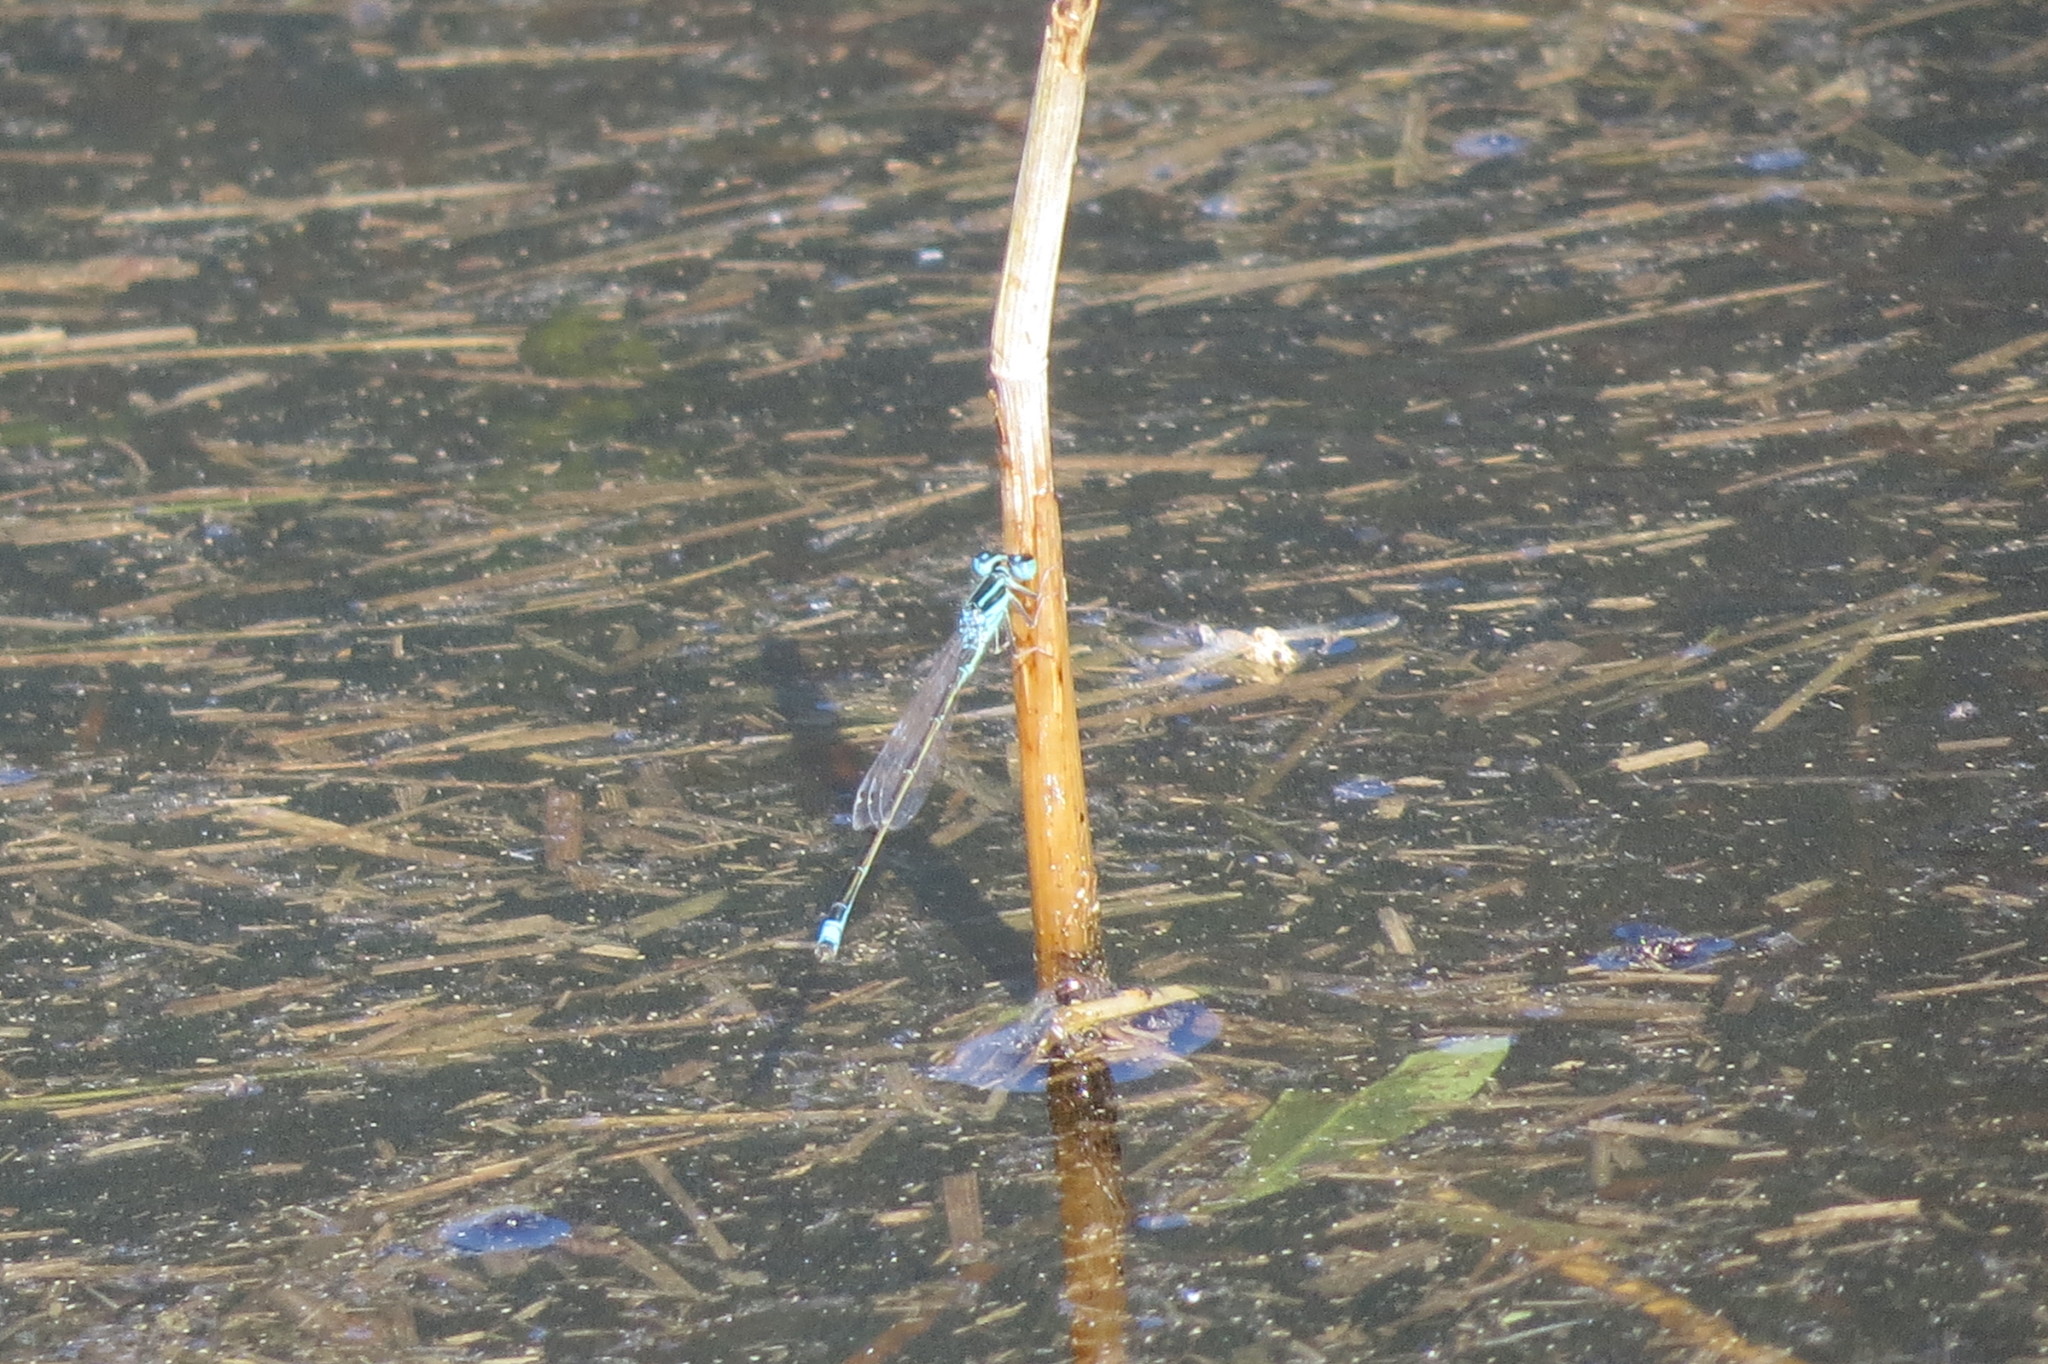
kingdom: Animalia
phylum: Arthropoda
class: Insecta
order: Odonata
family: Coenagrionidae
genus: Ischnura
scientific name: Ischnura pumilio
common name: Scarce blue-tailed damselfly
